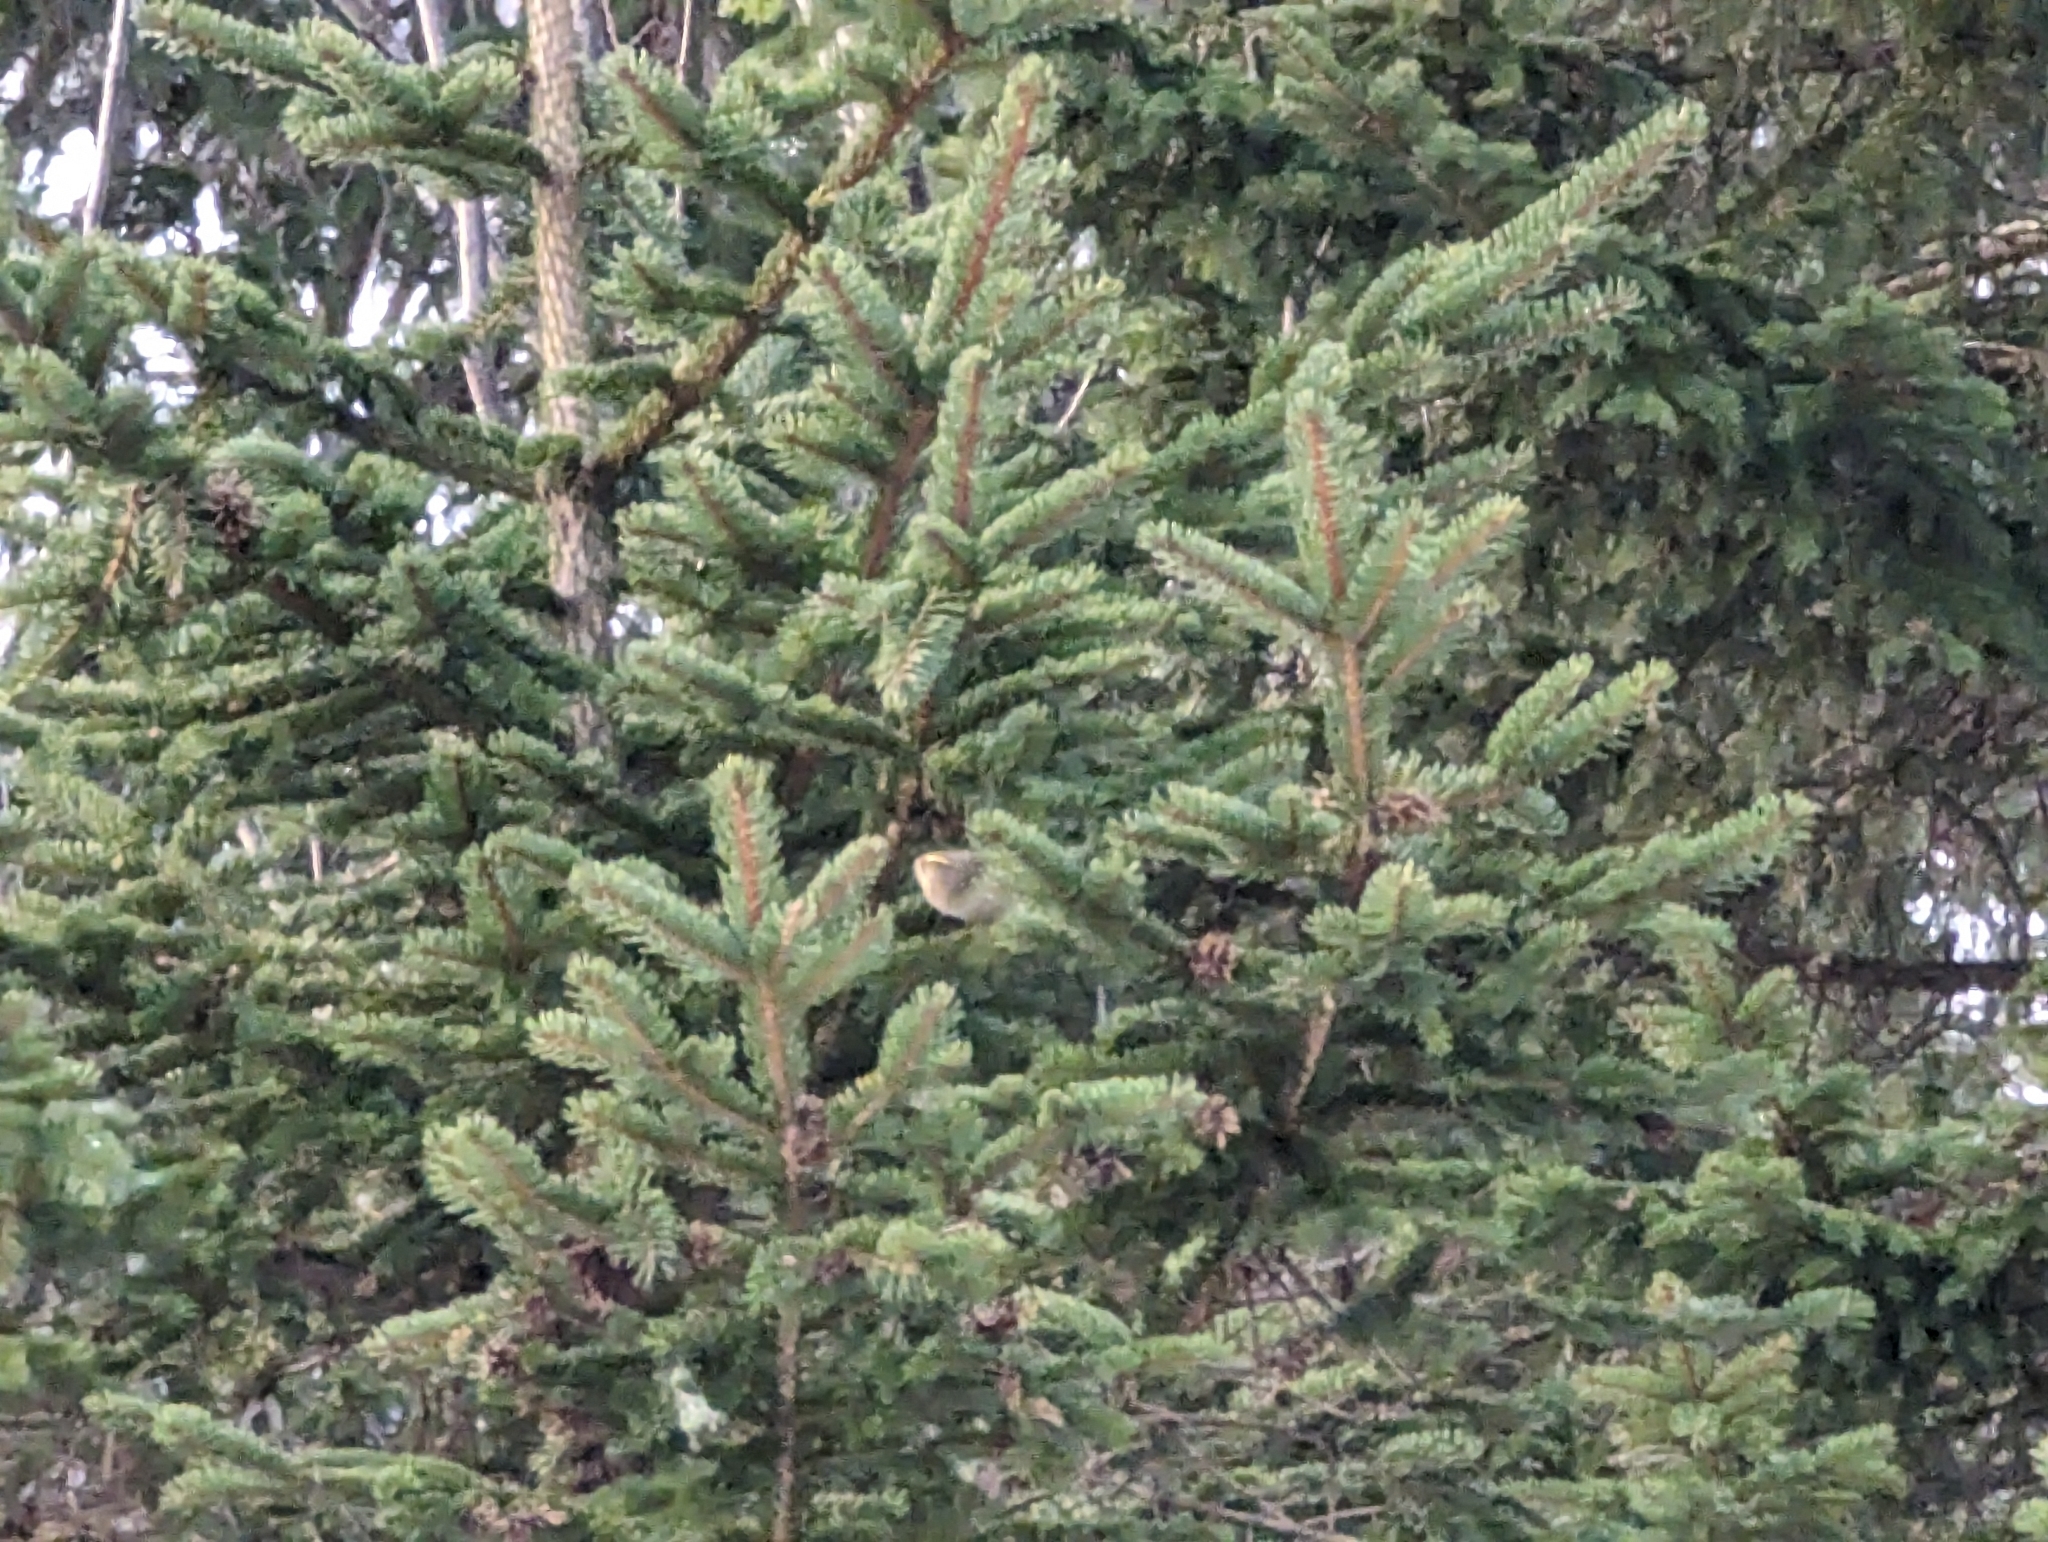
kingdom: Animalia
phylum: Chordata
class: Aves
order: Passeriformes
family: Regulidae
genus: Regulus
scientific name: Regulus regulus
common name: Goldcrest
